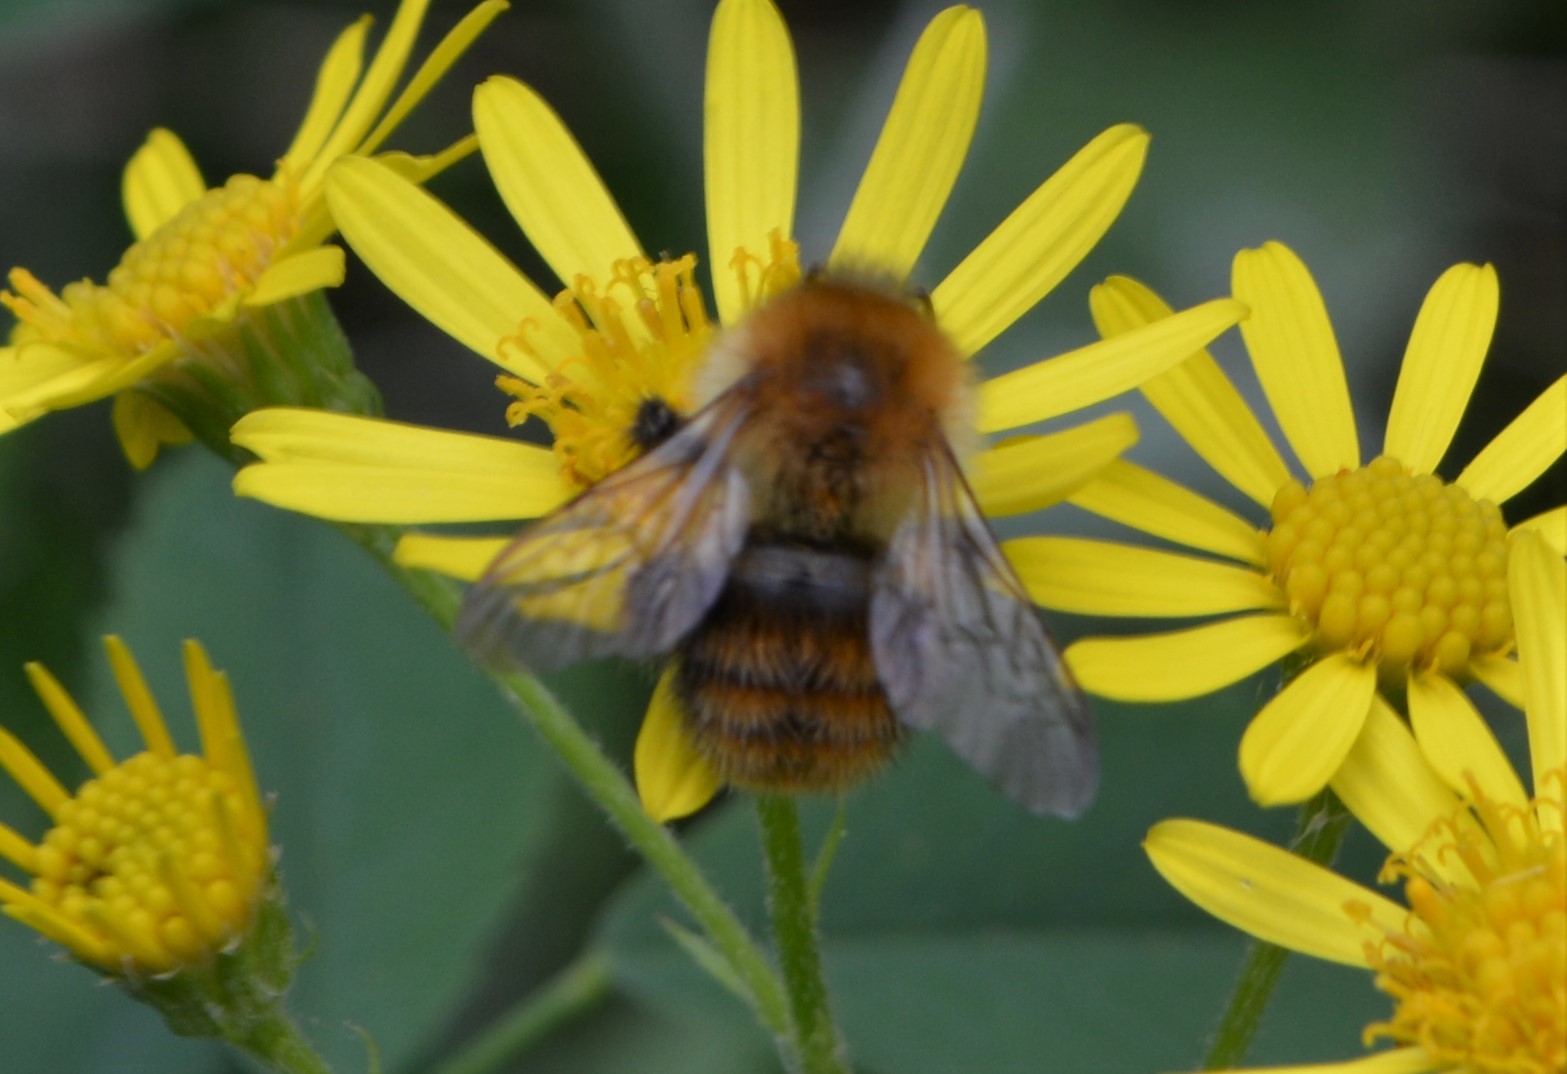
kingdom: Animalia
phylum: Arthropoda
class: Insecta
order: Hymenoptera
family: Apidae
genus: Bombus
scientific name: Bombus pascuorum
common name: Common carder bee
